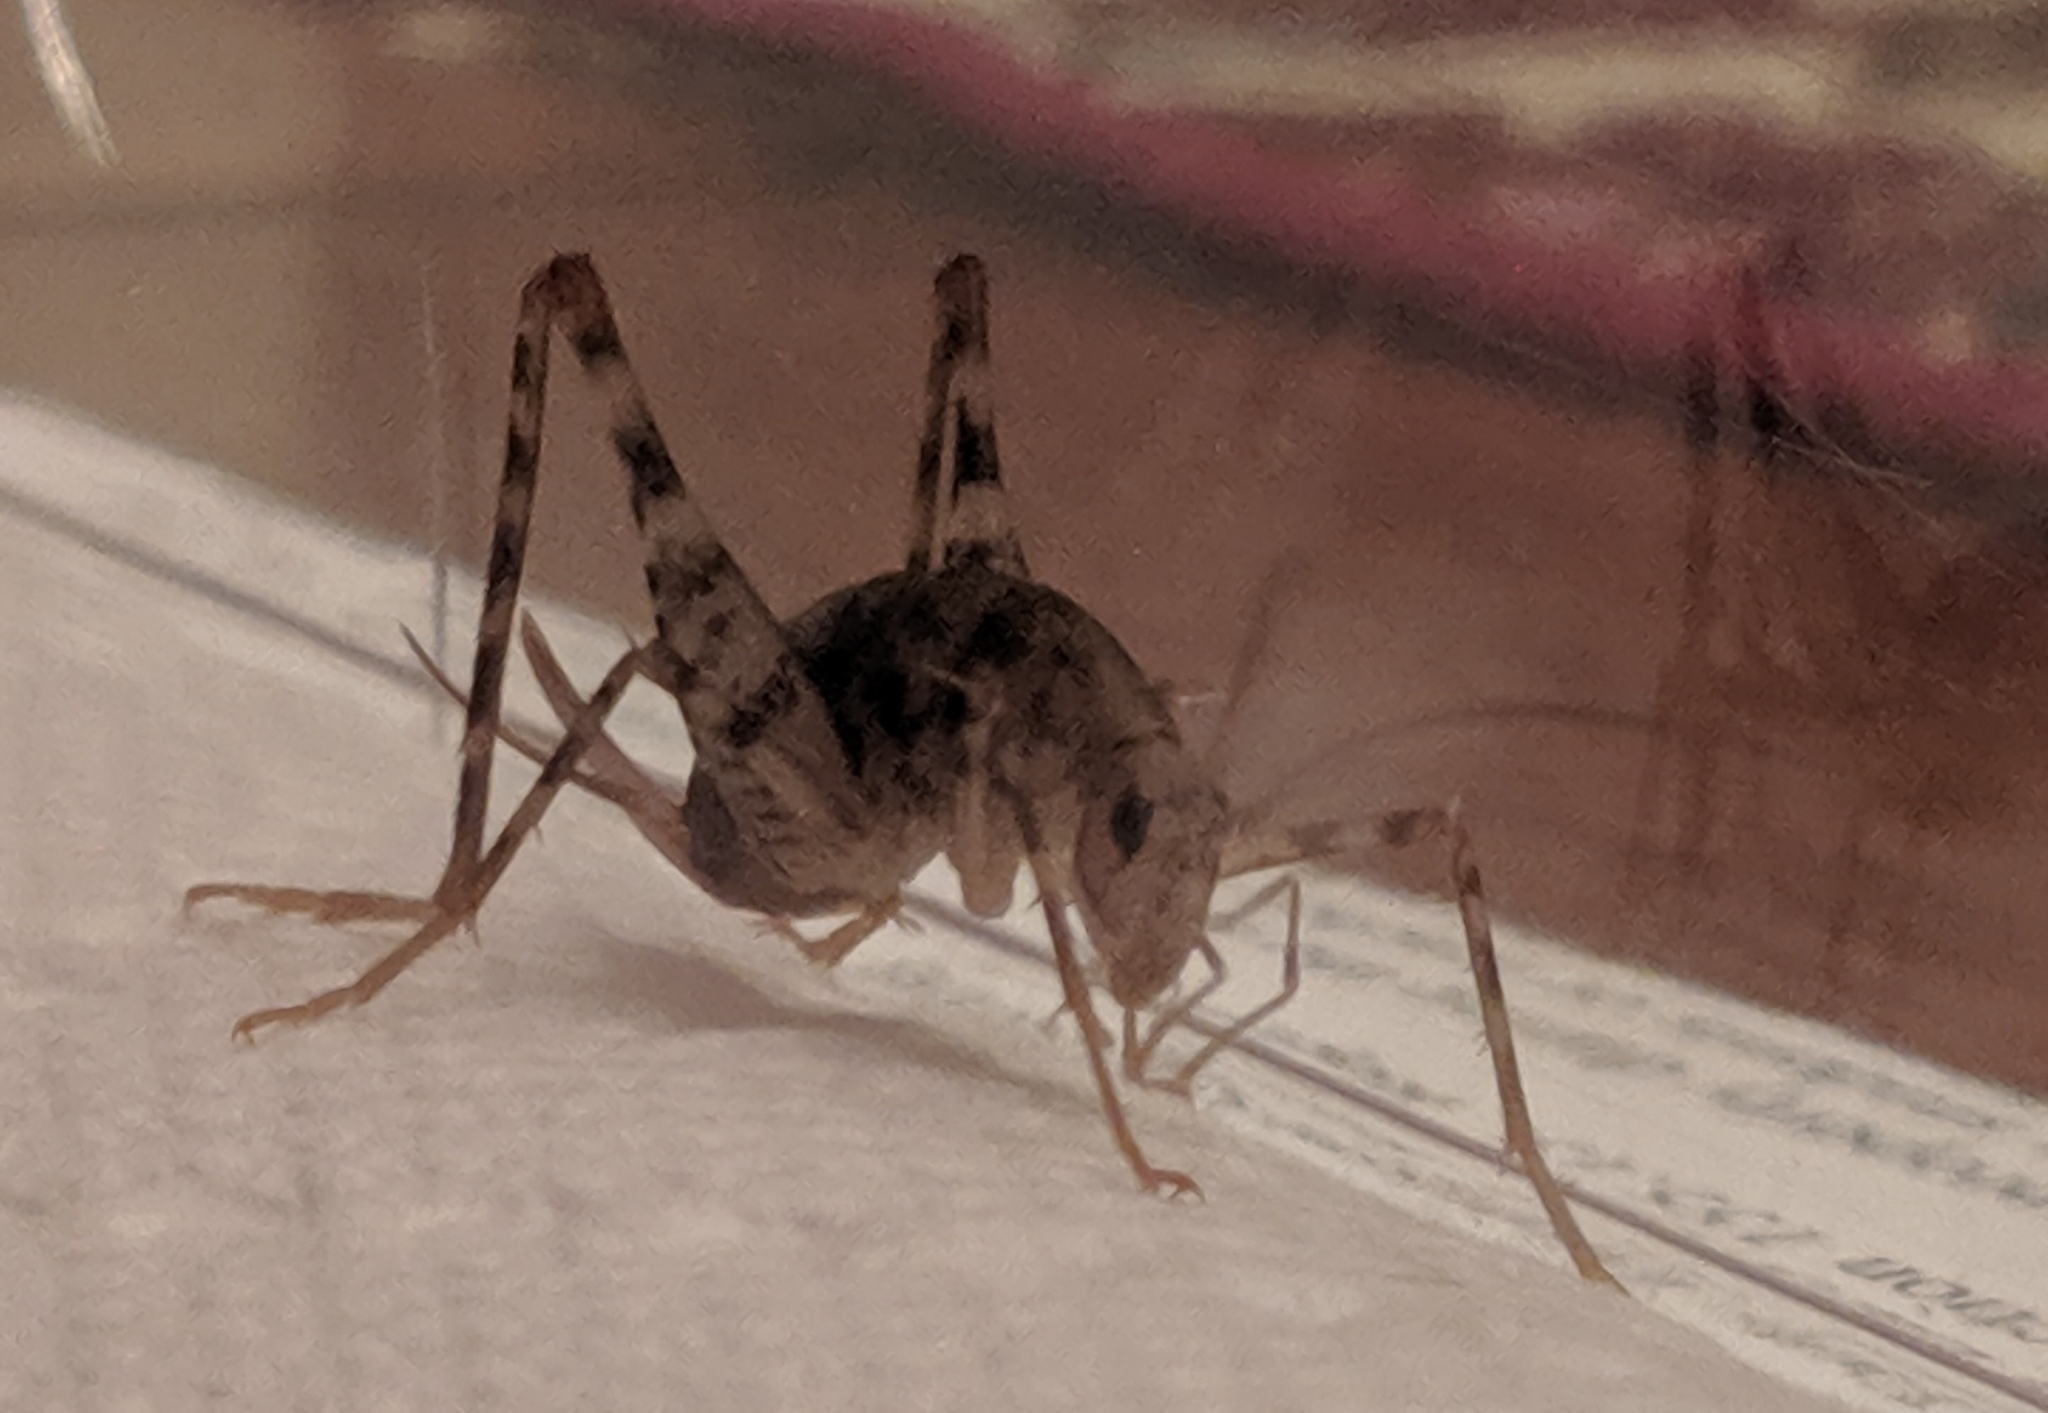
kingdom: Animalia
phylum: Arthropoda
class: Insecta
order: Orthoptera
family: Rhaphidophoridae
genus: Tachycines
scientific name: Tachycines asynamorus
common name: Greenhouse camel cricket
